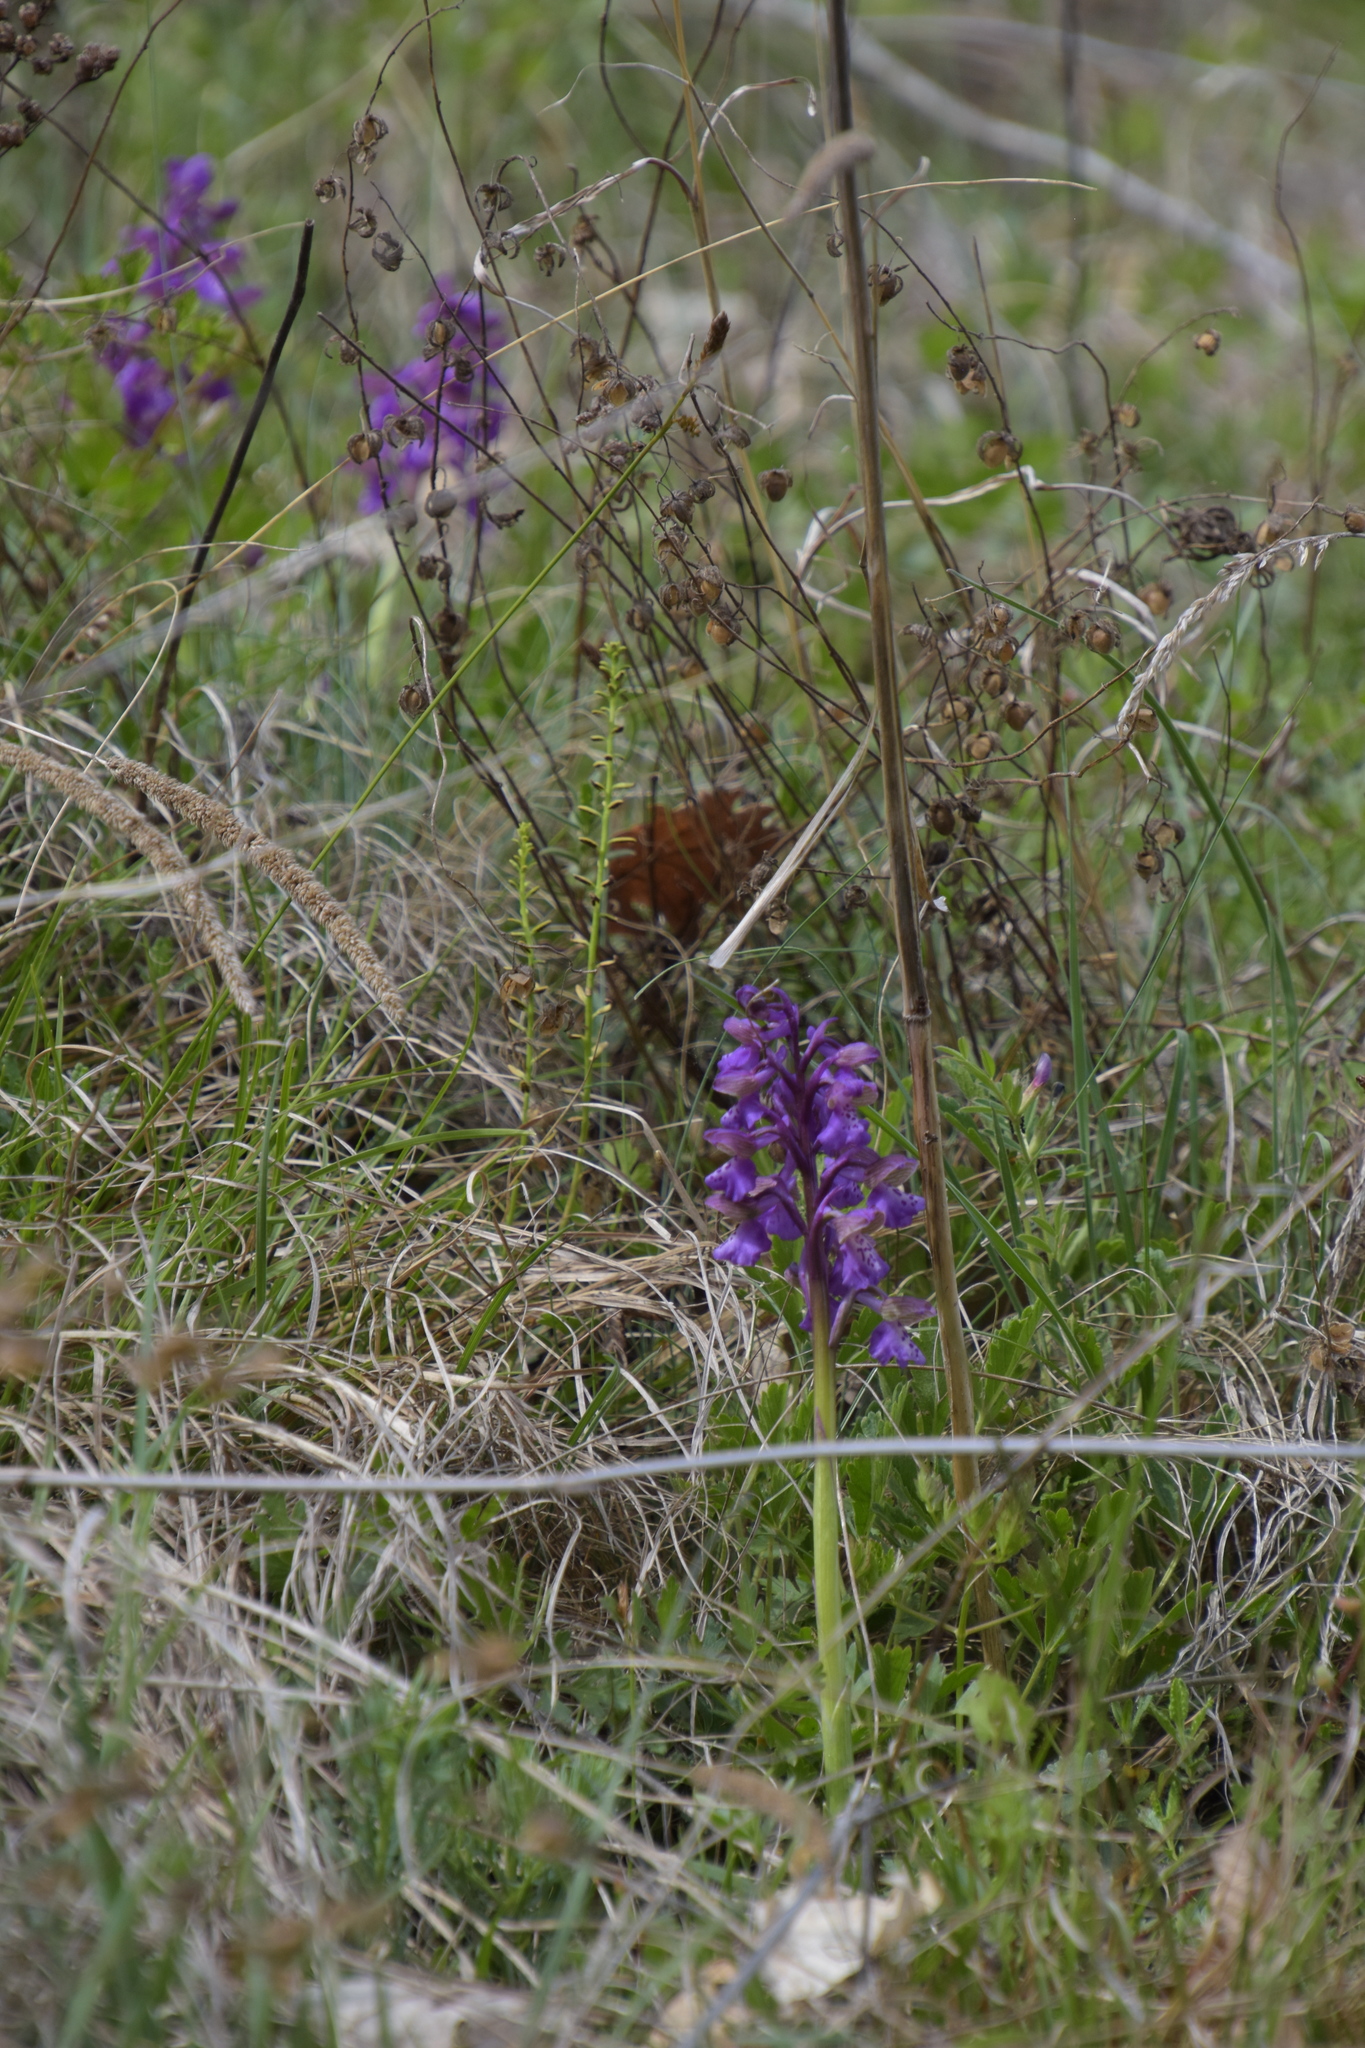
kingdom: Plantae
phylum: Tracheophyta
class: Liliopsida
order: Asparagales
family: Orchidaceae
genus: Anacamptis
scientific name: Anacamptis morio
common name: Green-winged orchid
